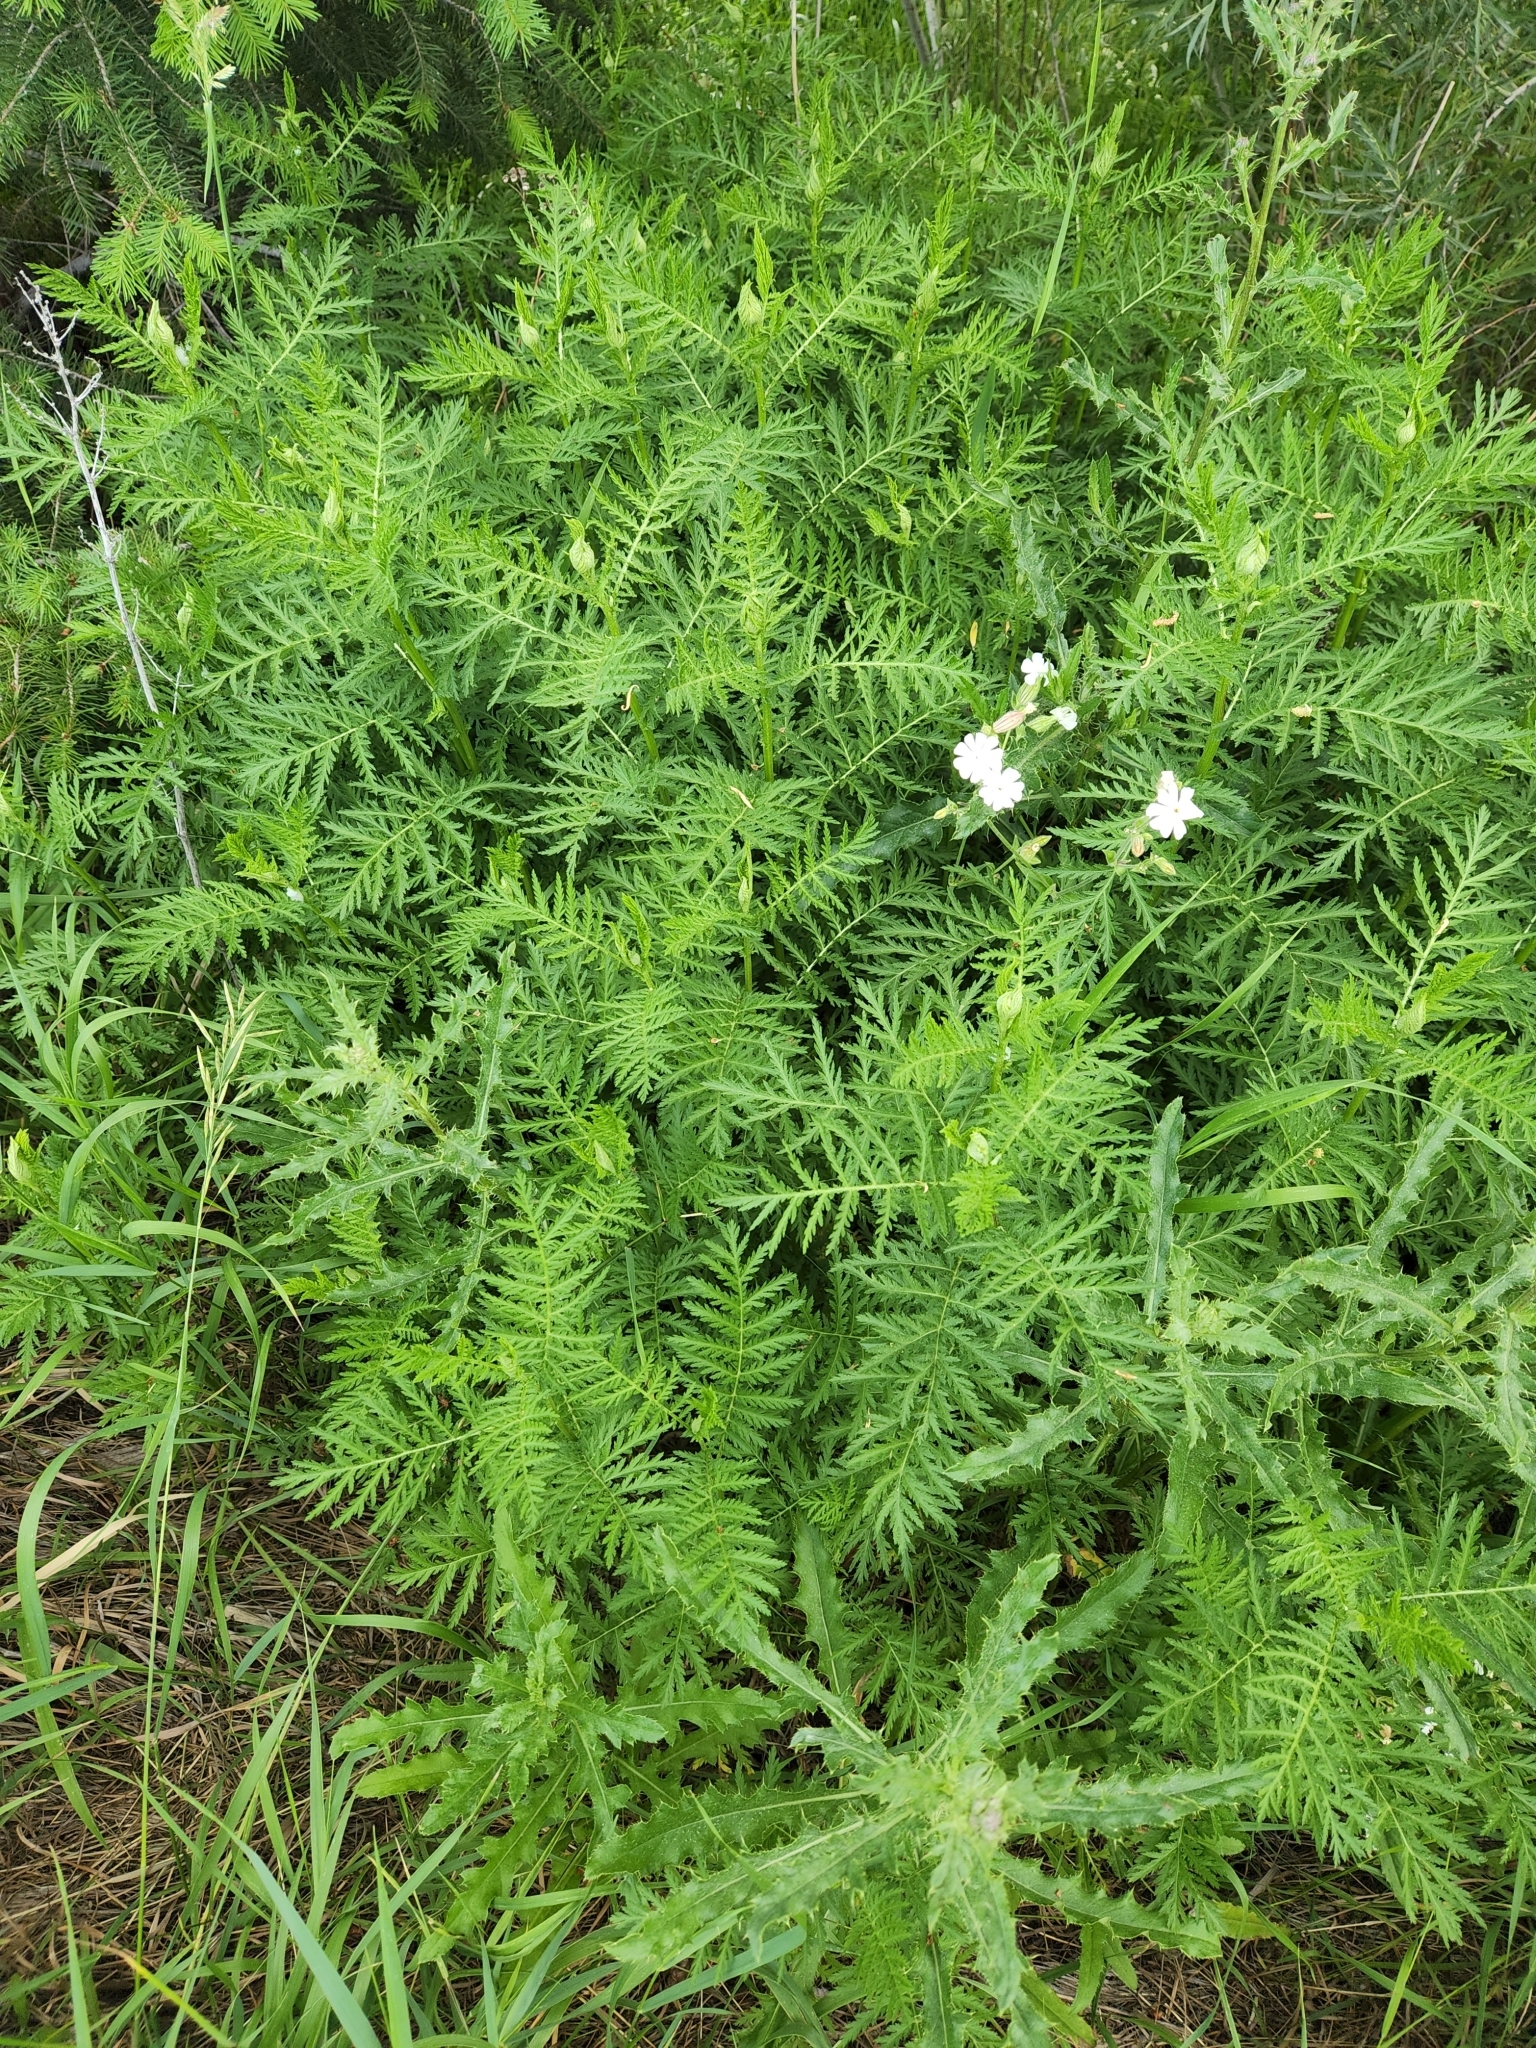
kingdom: Plantae
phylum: Tracheophyta
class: Magnoliopsida
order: Asterales
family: Asteraceae
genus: Tanacetum
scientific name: Tanacetum vulgare
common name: Common tansy
